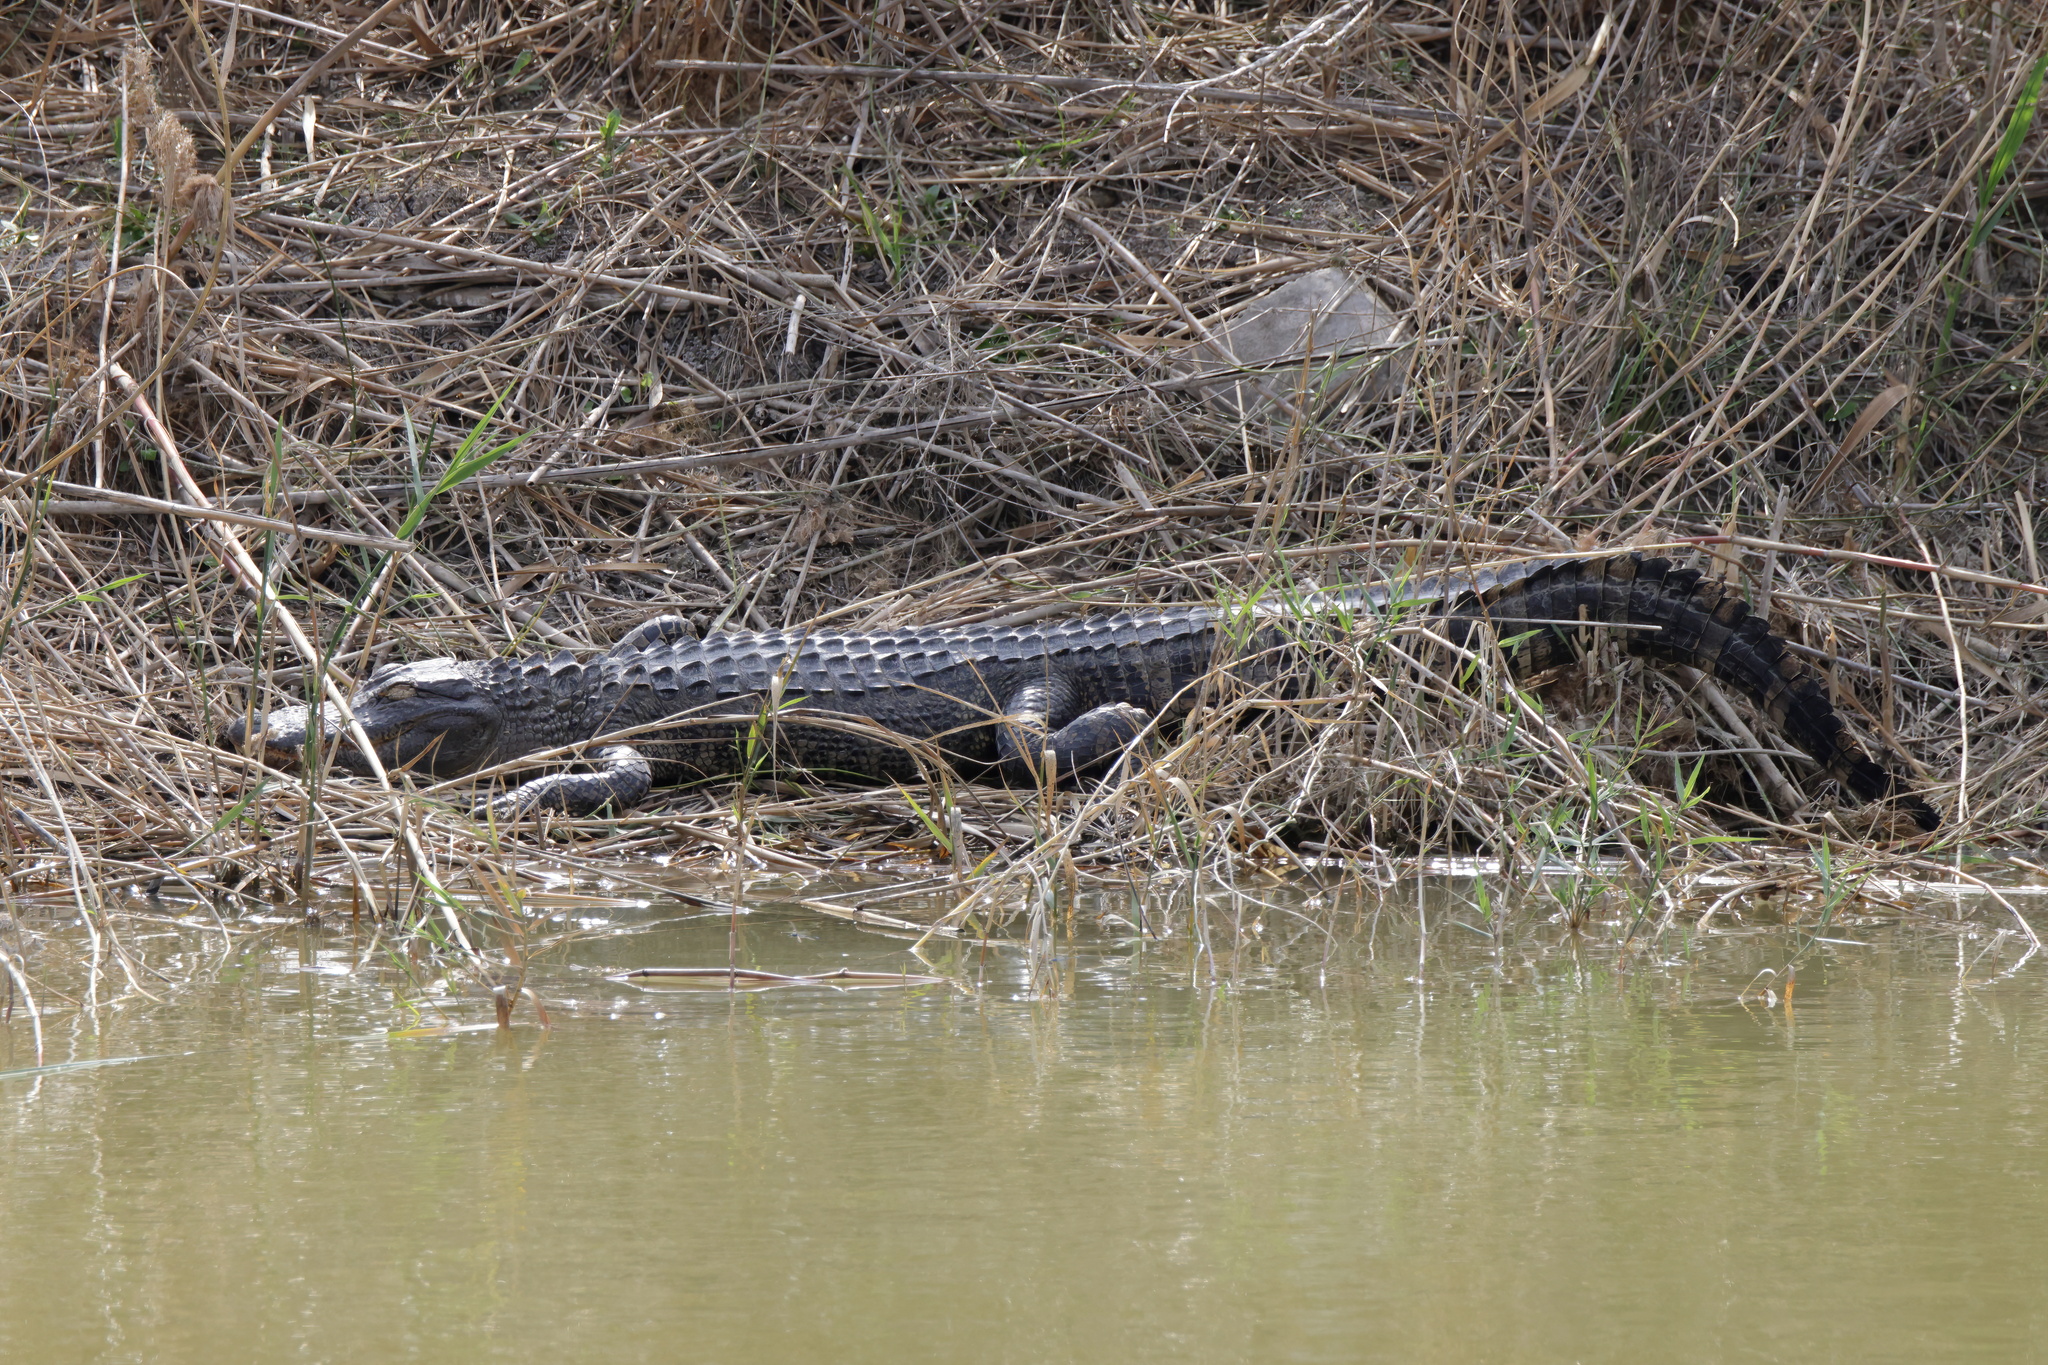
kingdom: Animalia
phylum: Chordata
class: Crocodylia
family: Alligatoridae
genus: Alligator
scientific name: Alligator mississippiensis
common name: American alligator
